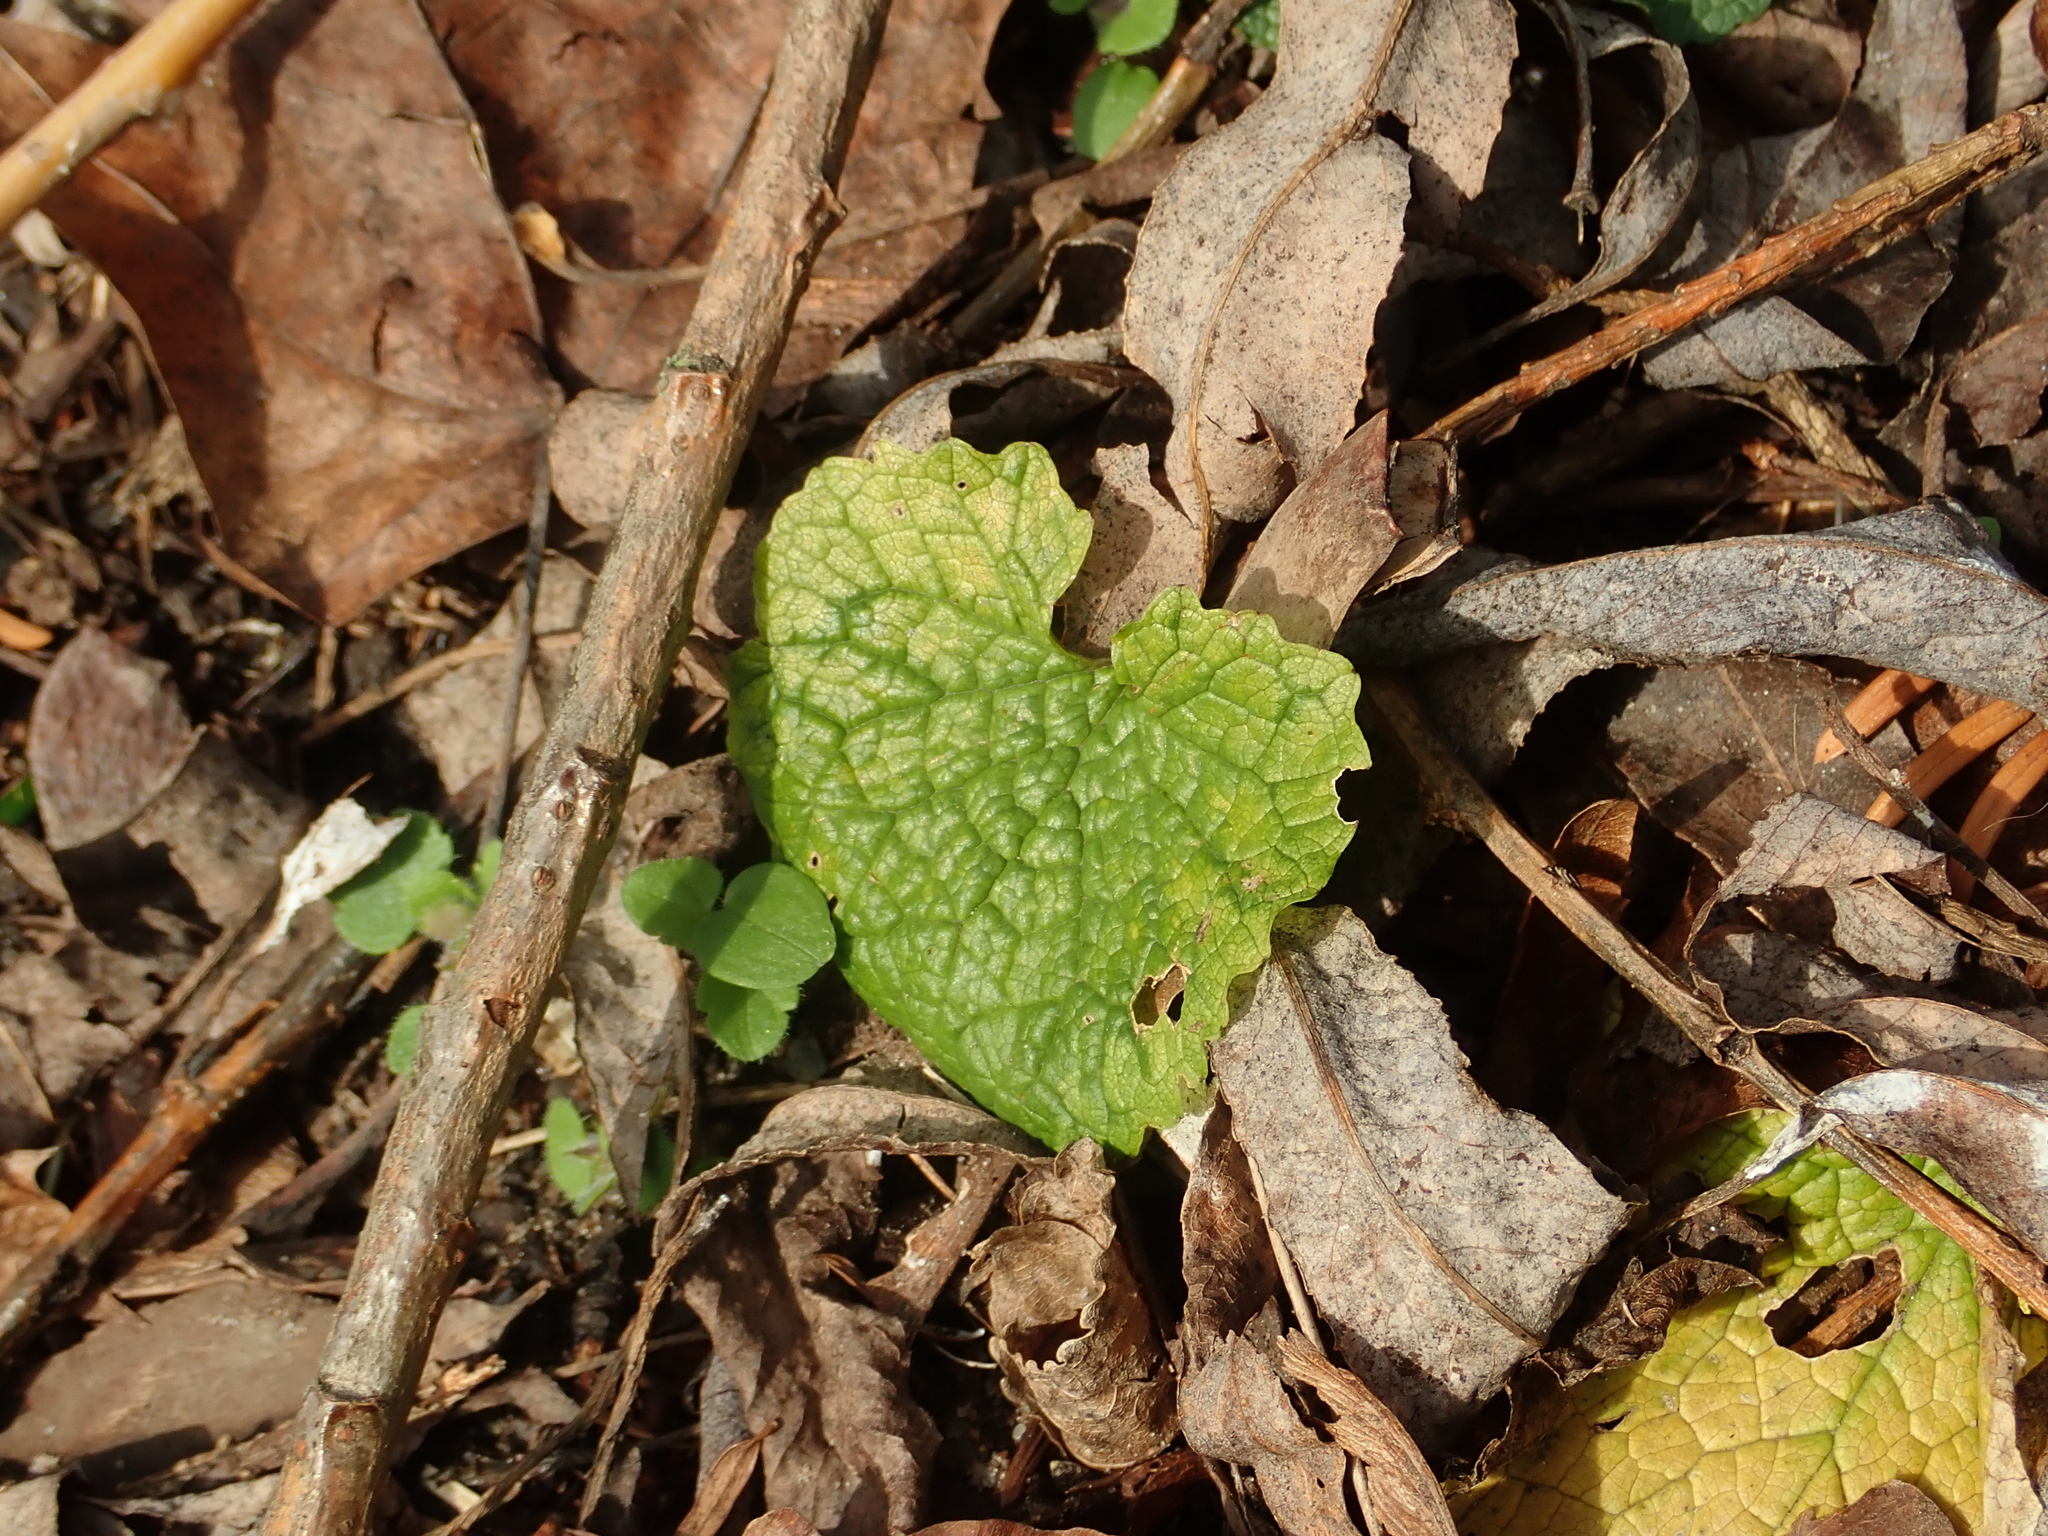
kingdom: Plantae
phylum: Tracheophyta
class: Magnoliopsida
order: Brassicales
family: Brassicaceae
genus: Alliaria
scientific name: Alliaria petiolata
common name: Garlic mustard
